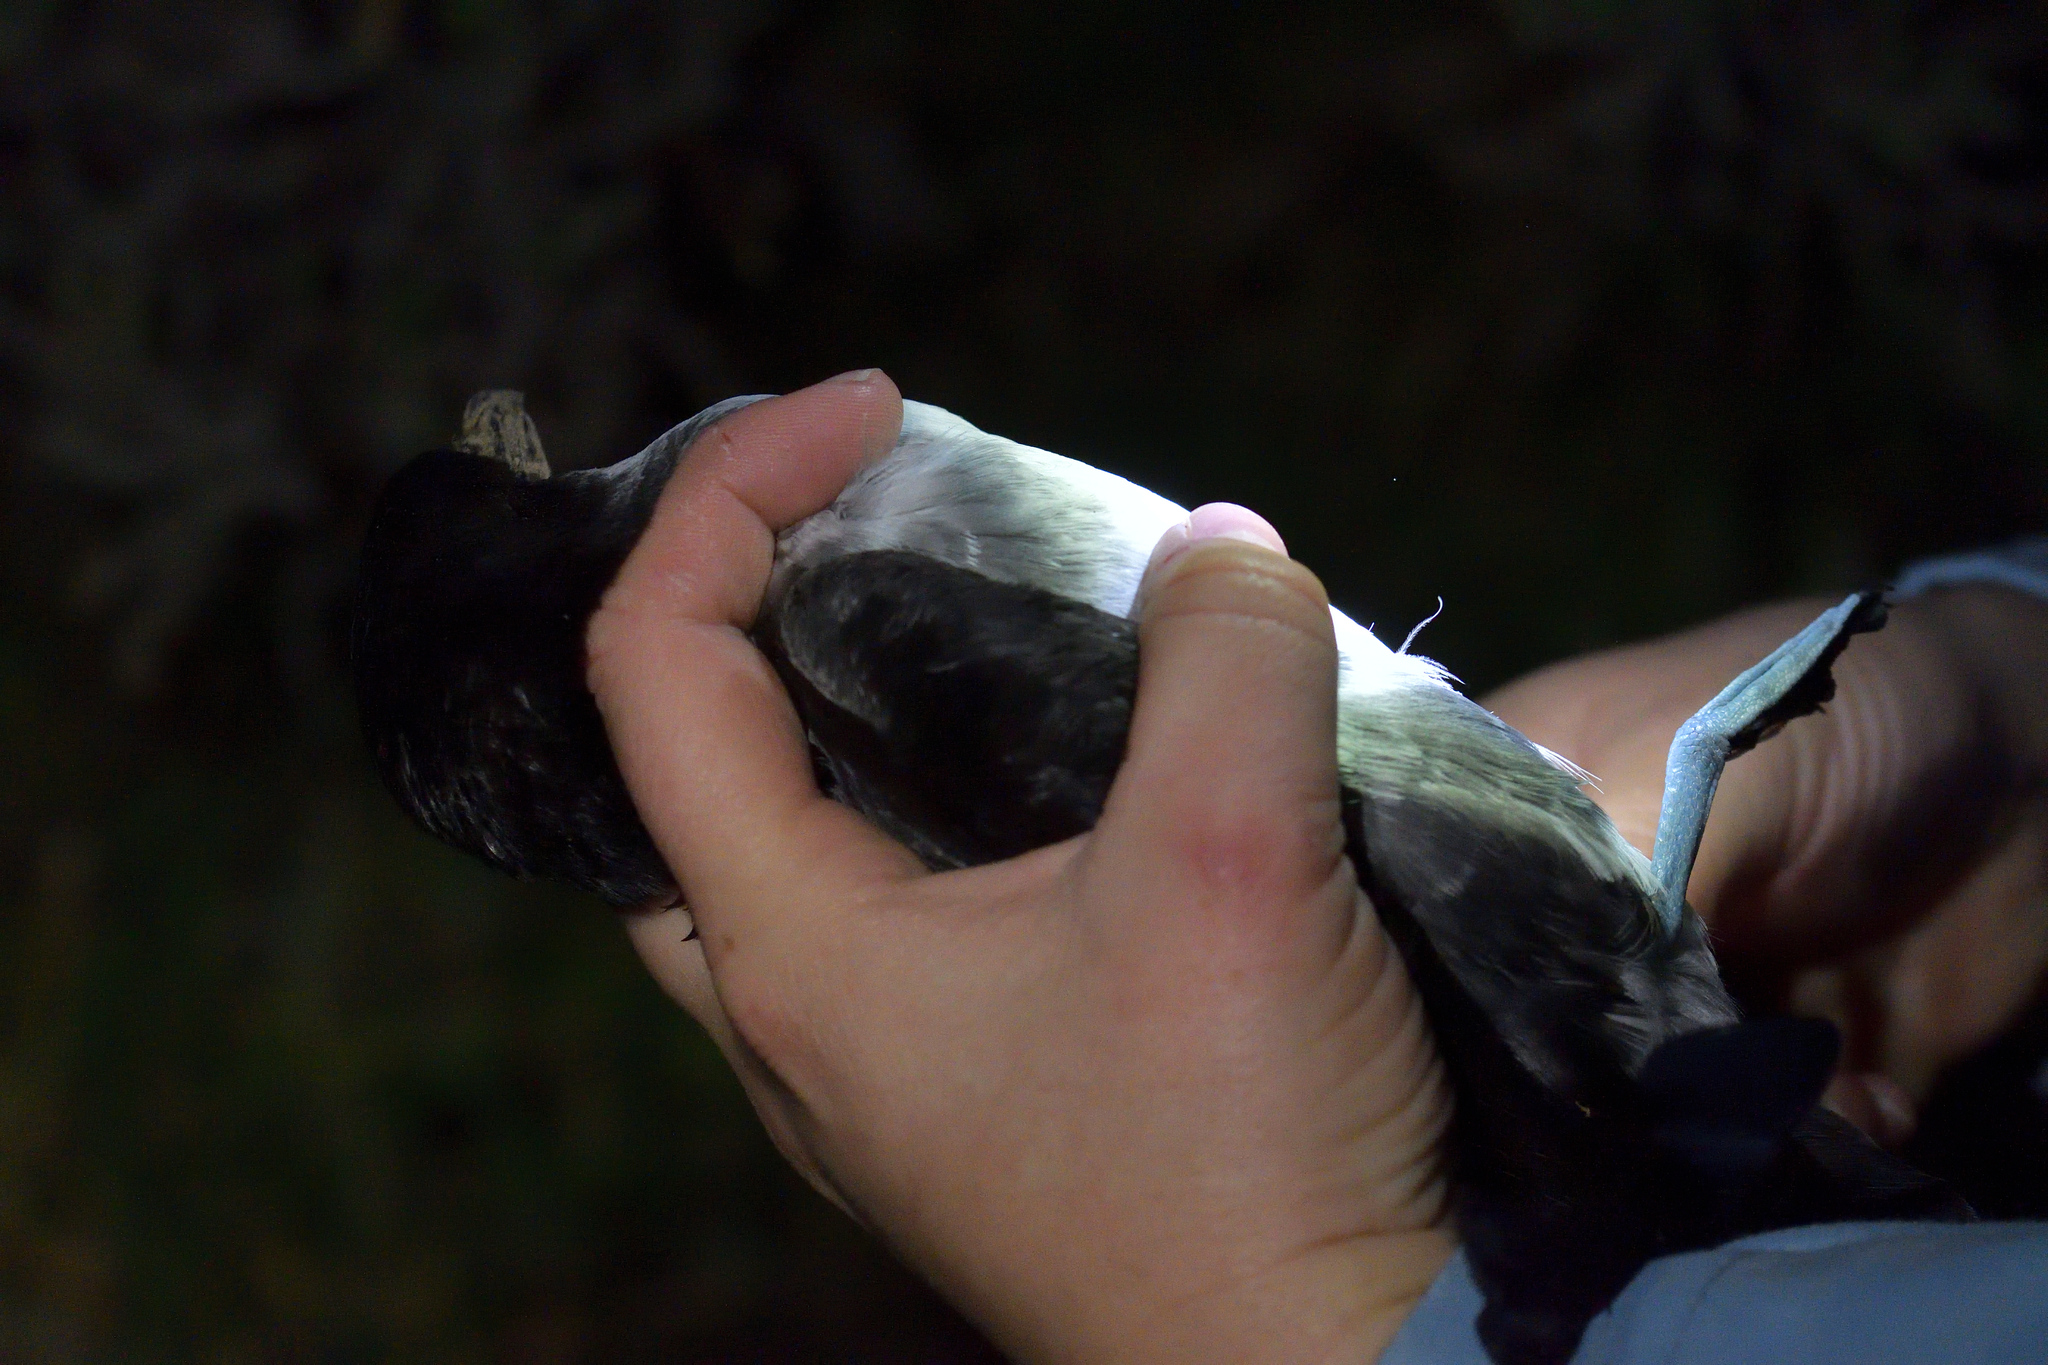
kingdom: Animalia
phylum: Chordata
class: Aves
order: Procellariiformes
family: Pelecanoididae
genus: Pelecanoides
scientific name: Pelecanoides urinatrix
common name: Common diving-petrel
